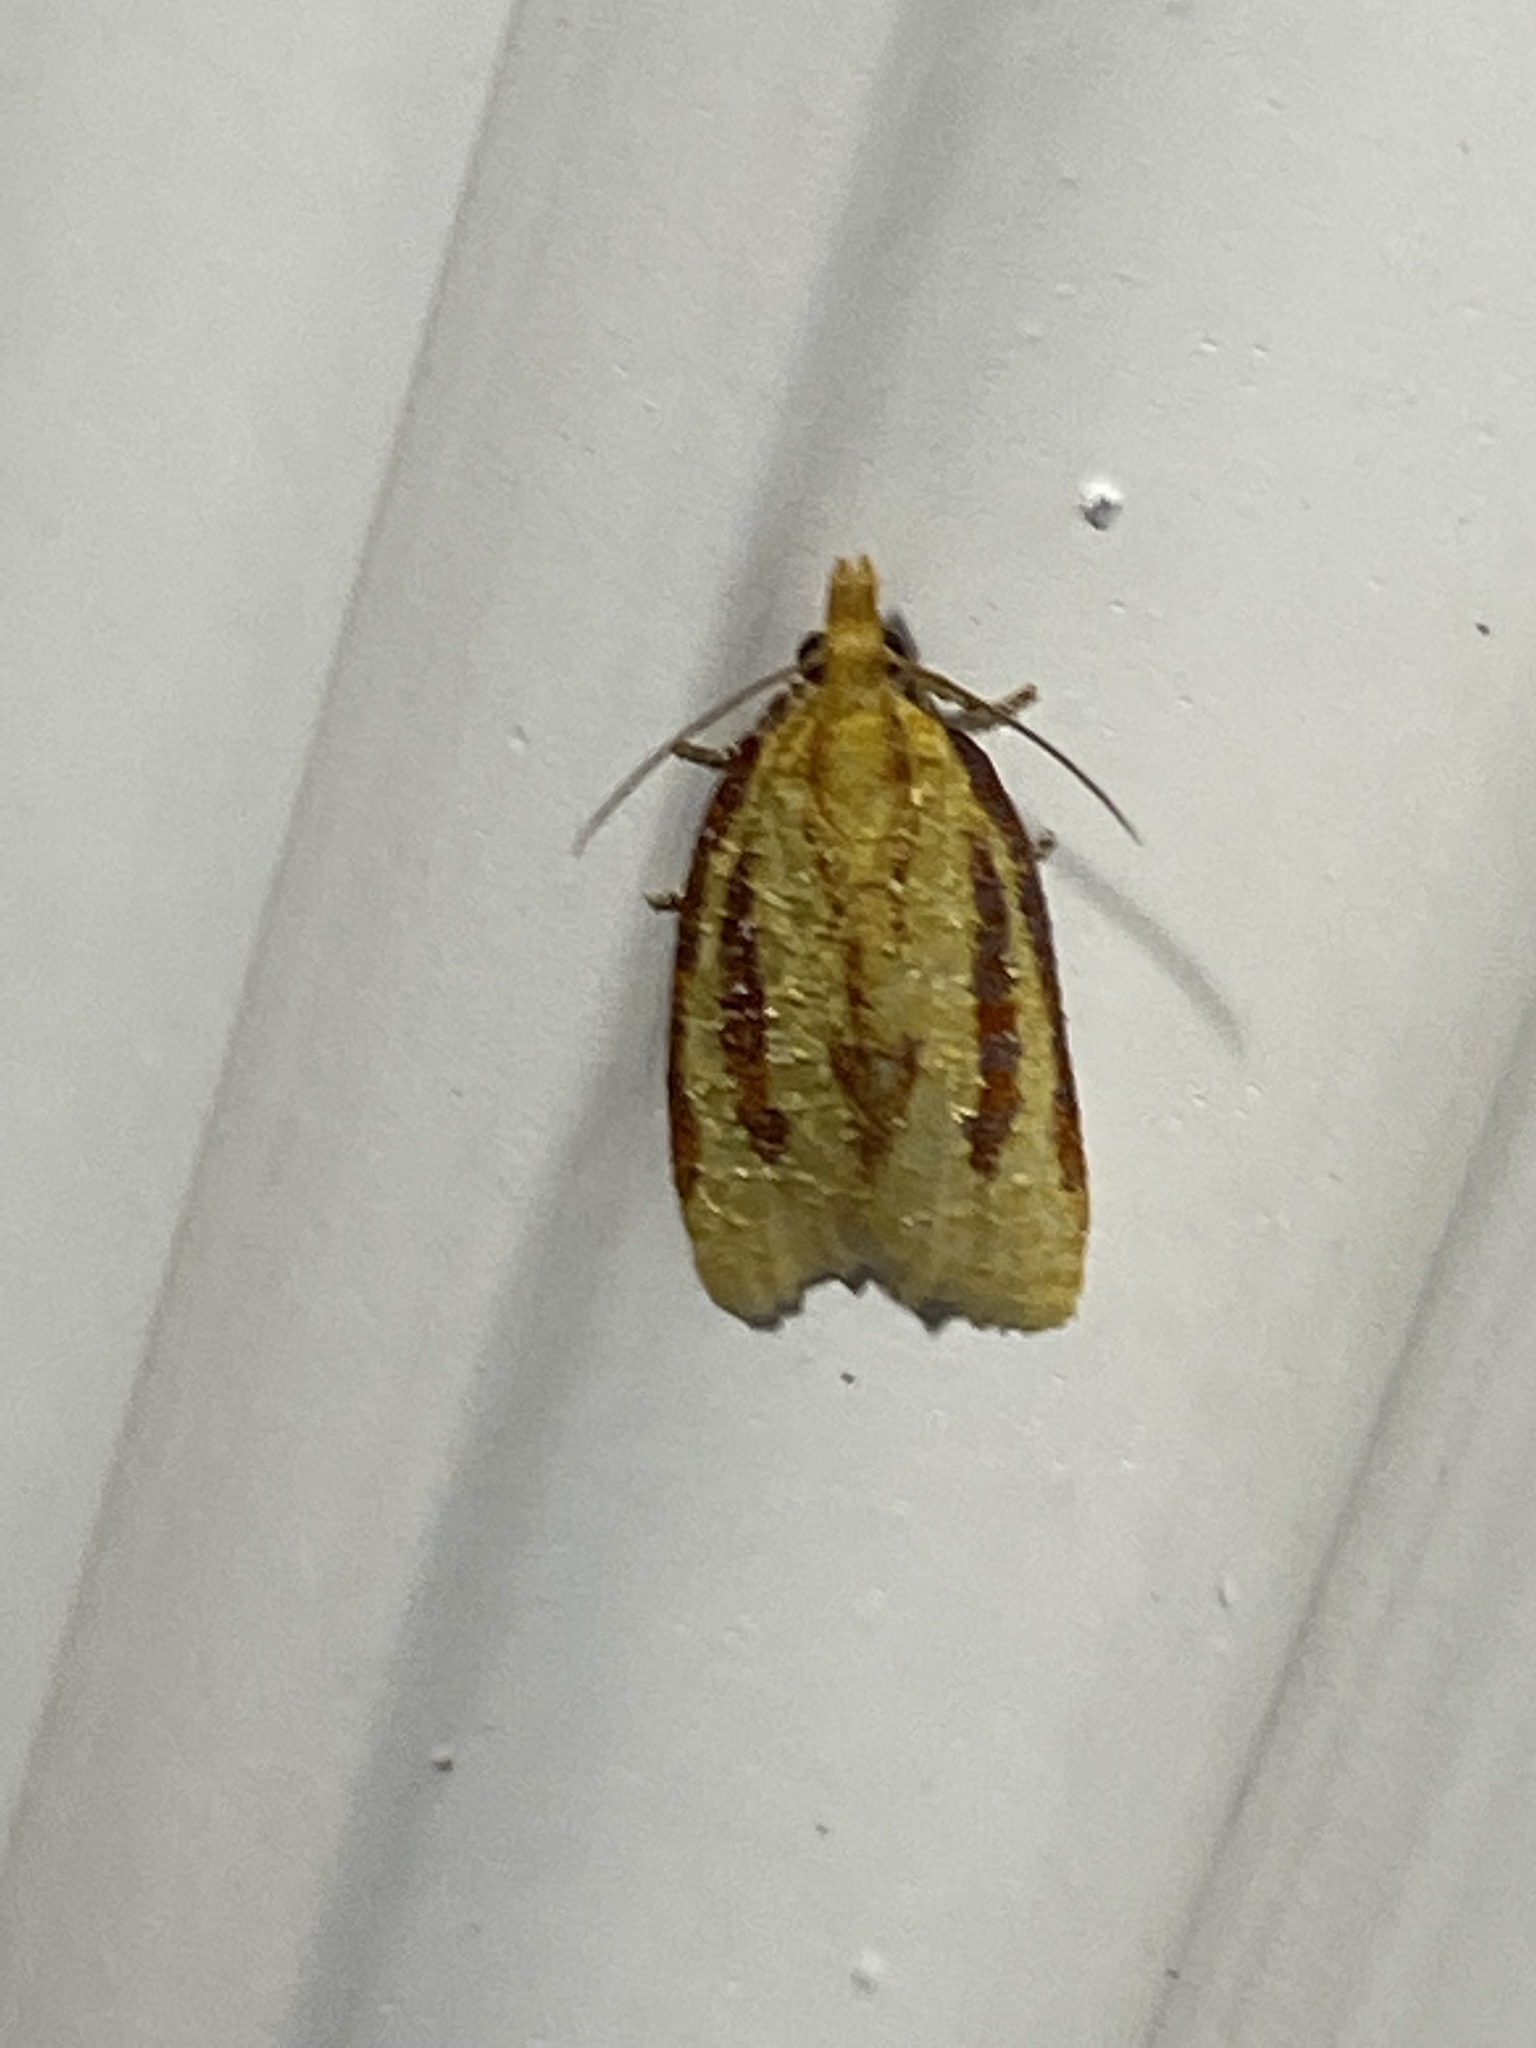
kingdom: Animalia
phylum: Arthropoda
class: Insecta
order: Lepidoptera
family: Tortricidae
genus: Sparganothis
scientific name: Sparganothis bistriata
